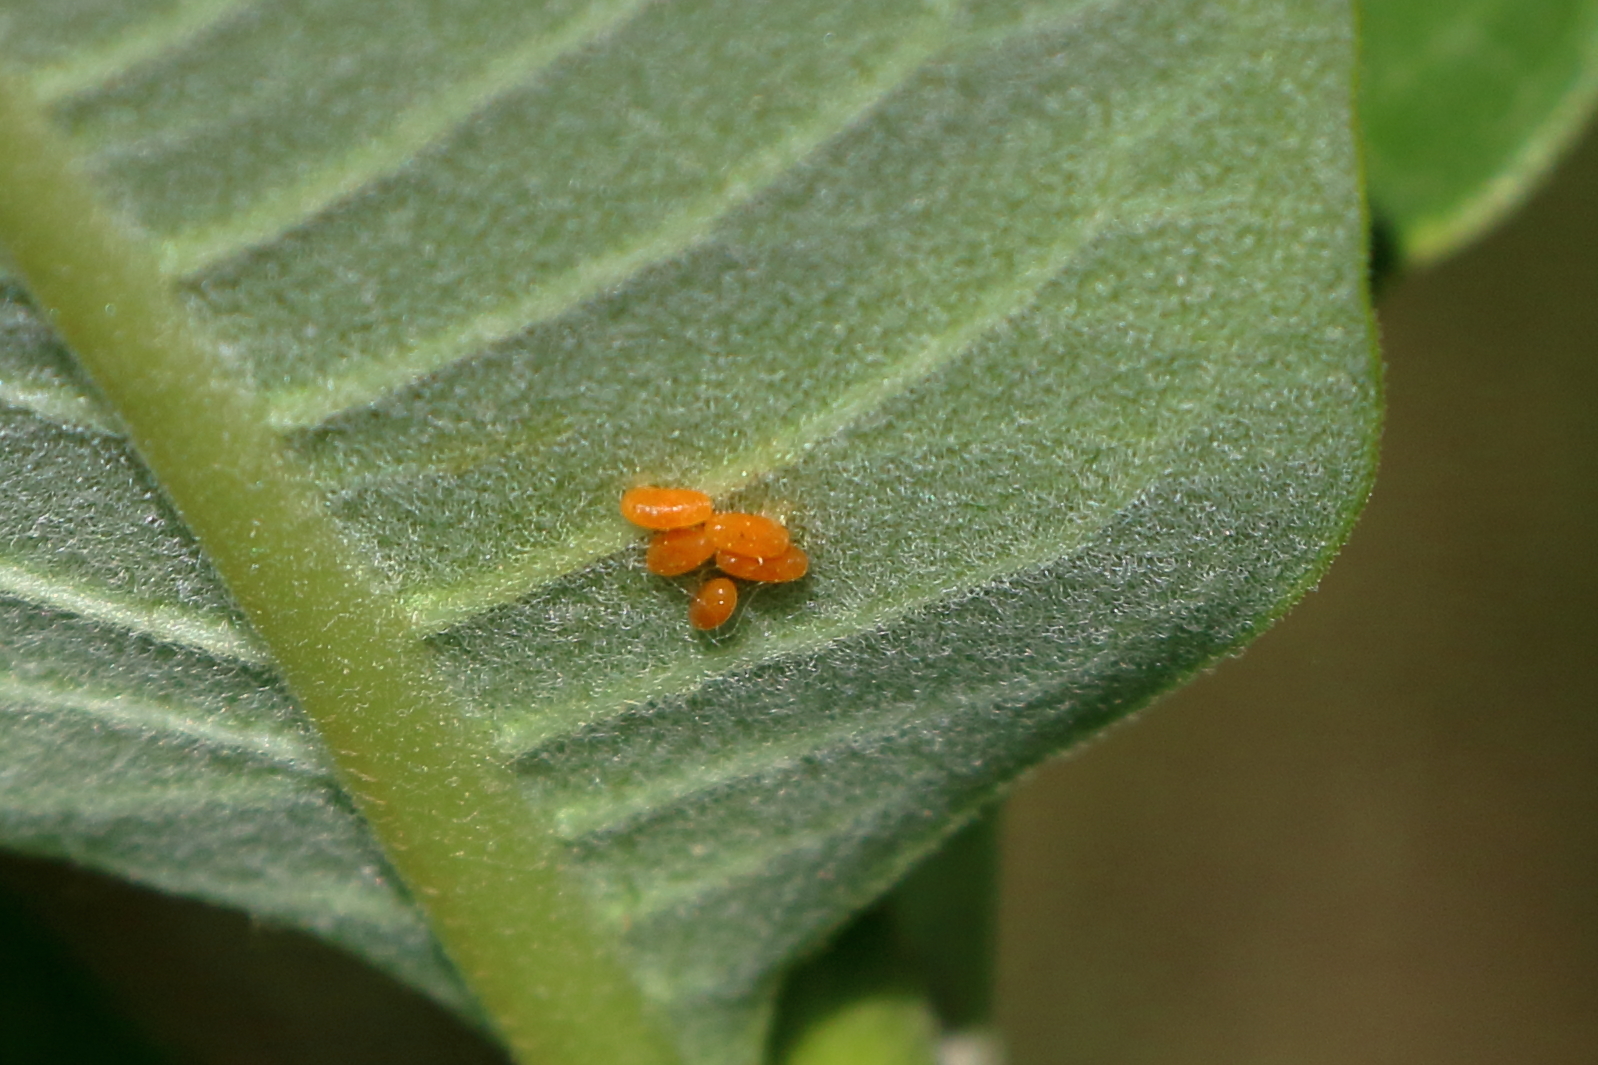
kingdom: Animalia
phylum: Arthropoda
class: Insecta
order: Coleoptera
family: Chrysomelidae
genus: Labidomera
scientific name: Labidomera clivicollis
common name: Swamp milkweed leaf beetle
